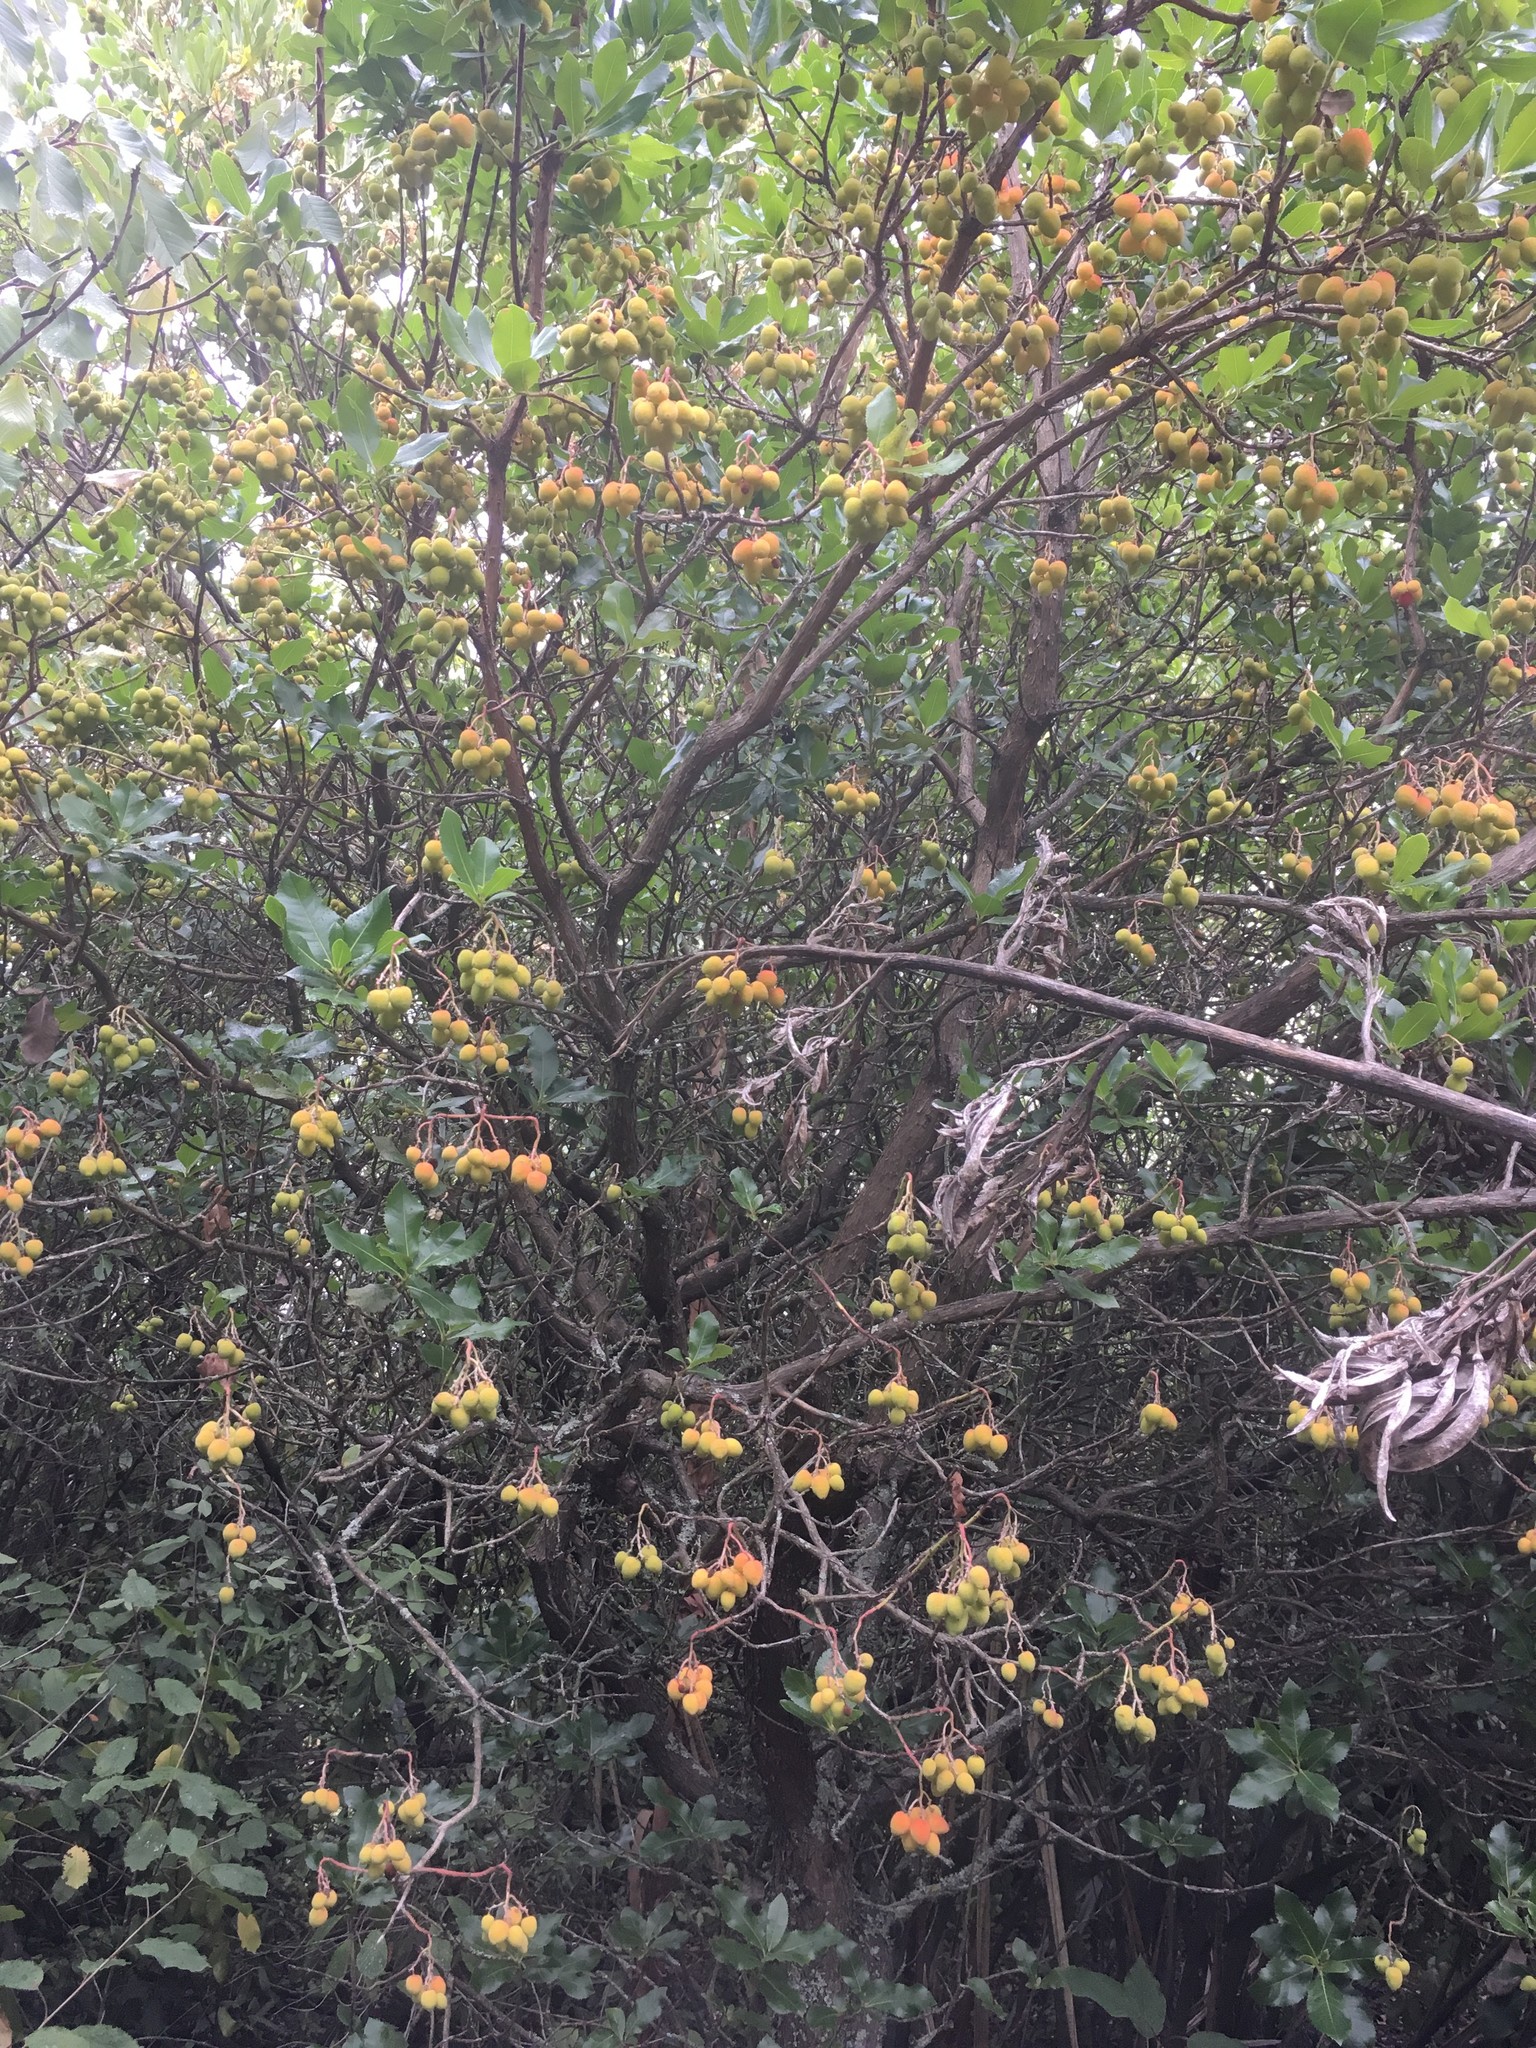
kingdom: Plantae
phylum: Tracheophyta
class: Magnoliopsida
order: Ericales
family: Ericaceae
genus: Arbutus
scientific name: Arbutus unedo
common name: Strawberry-tree
